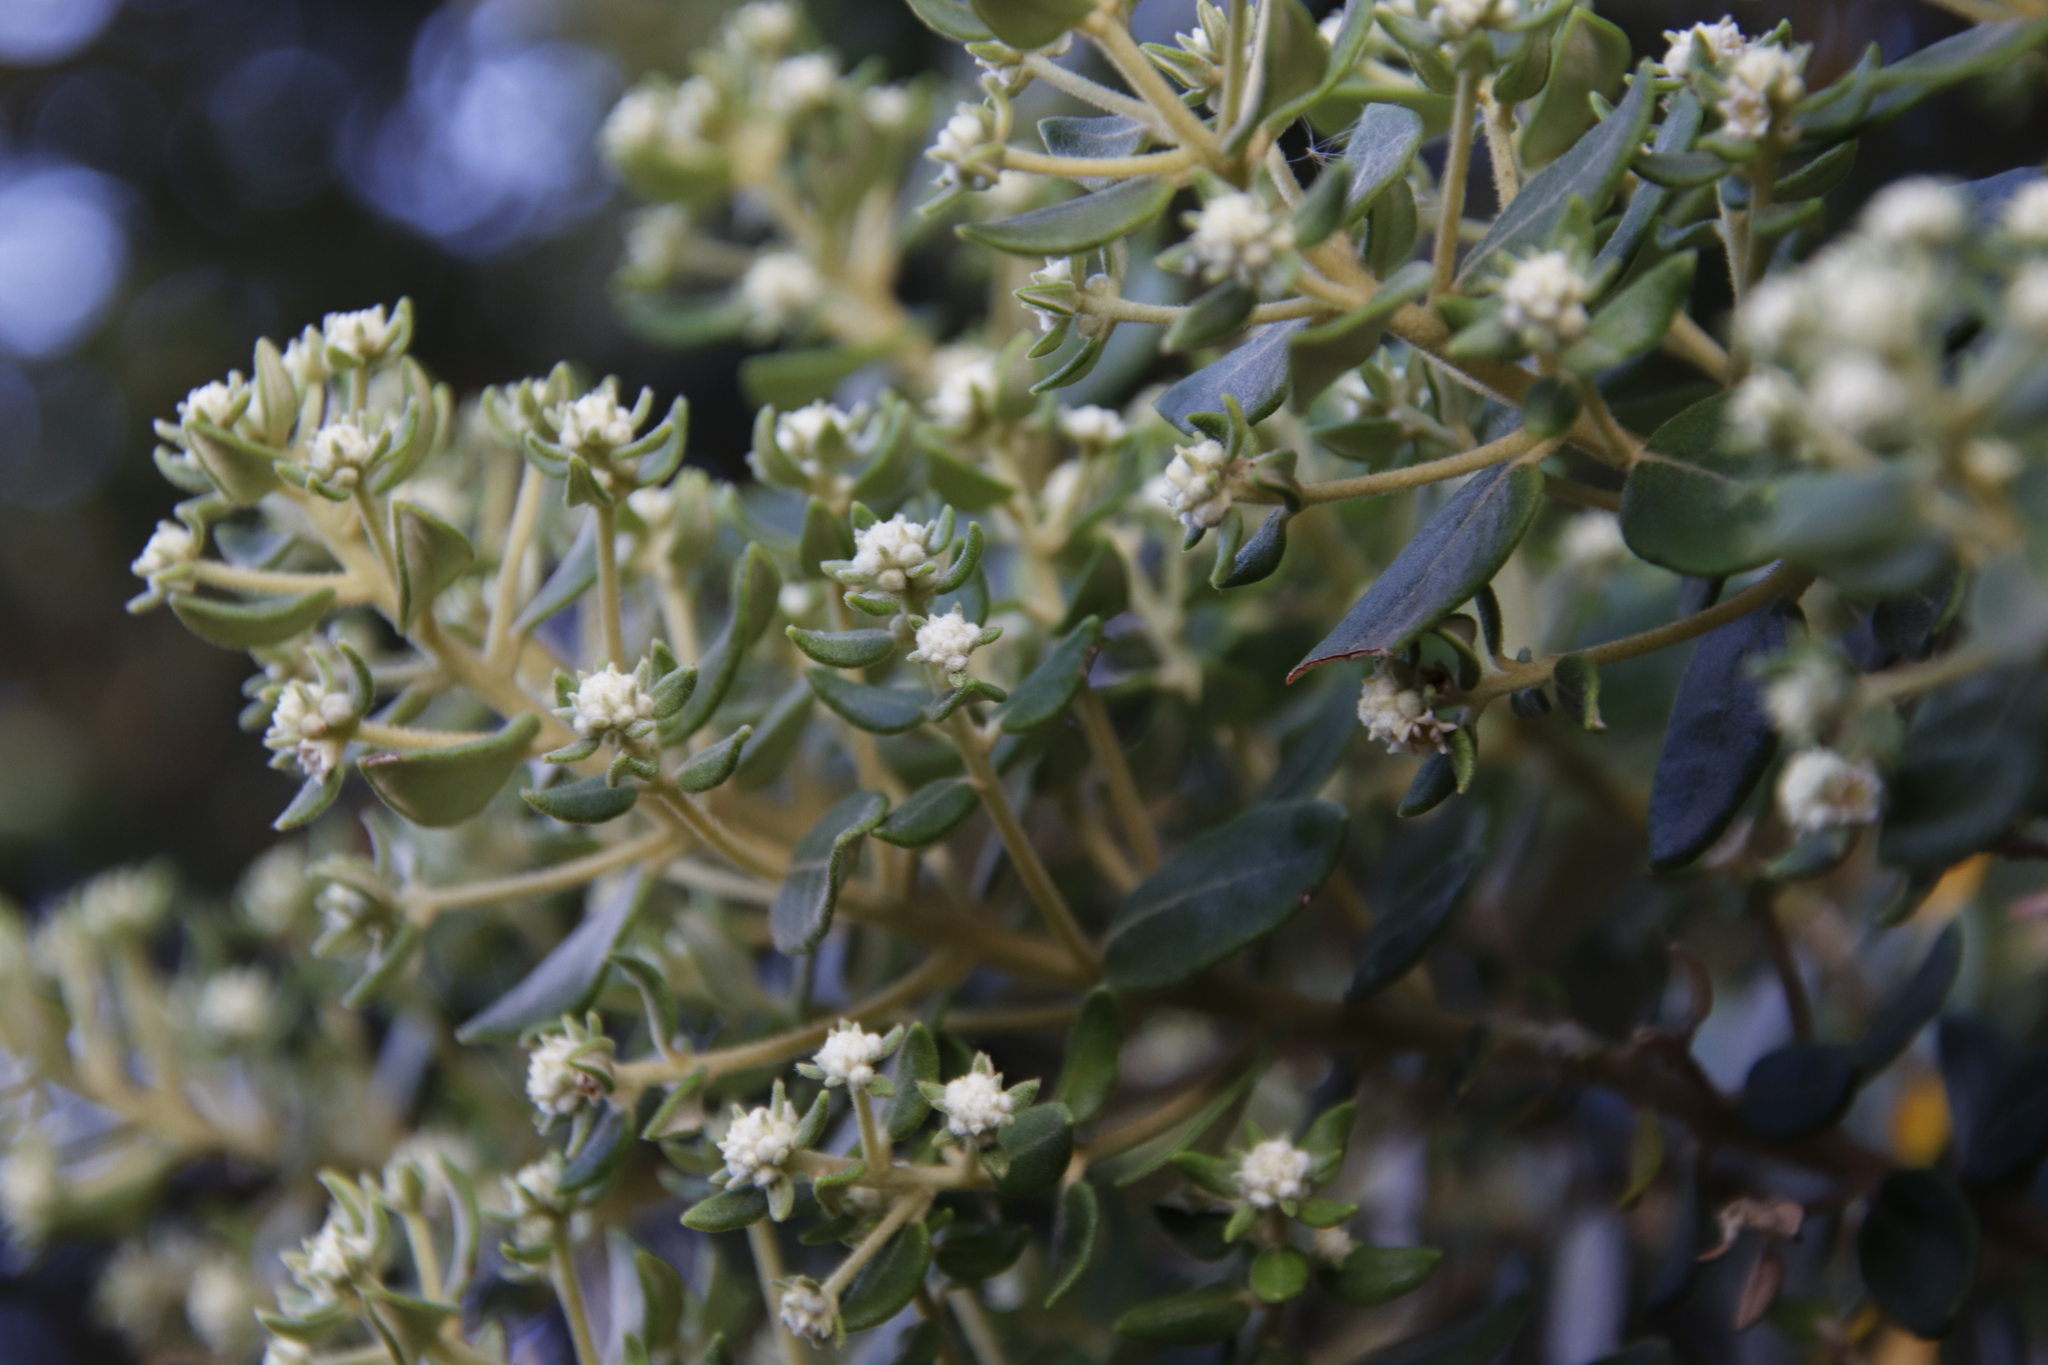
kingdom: Plantae
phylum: Tracheophyta
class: Magnoliopsida
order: Rosales
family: Rhamnaceae
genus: Phylica
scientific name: Phylica buxifolia
